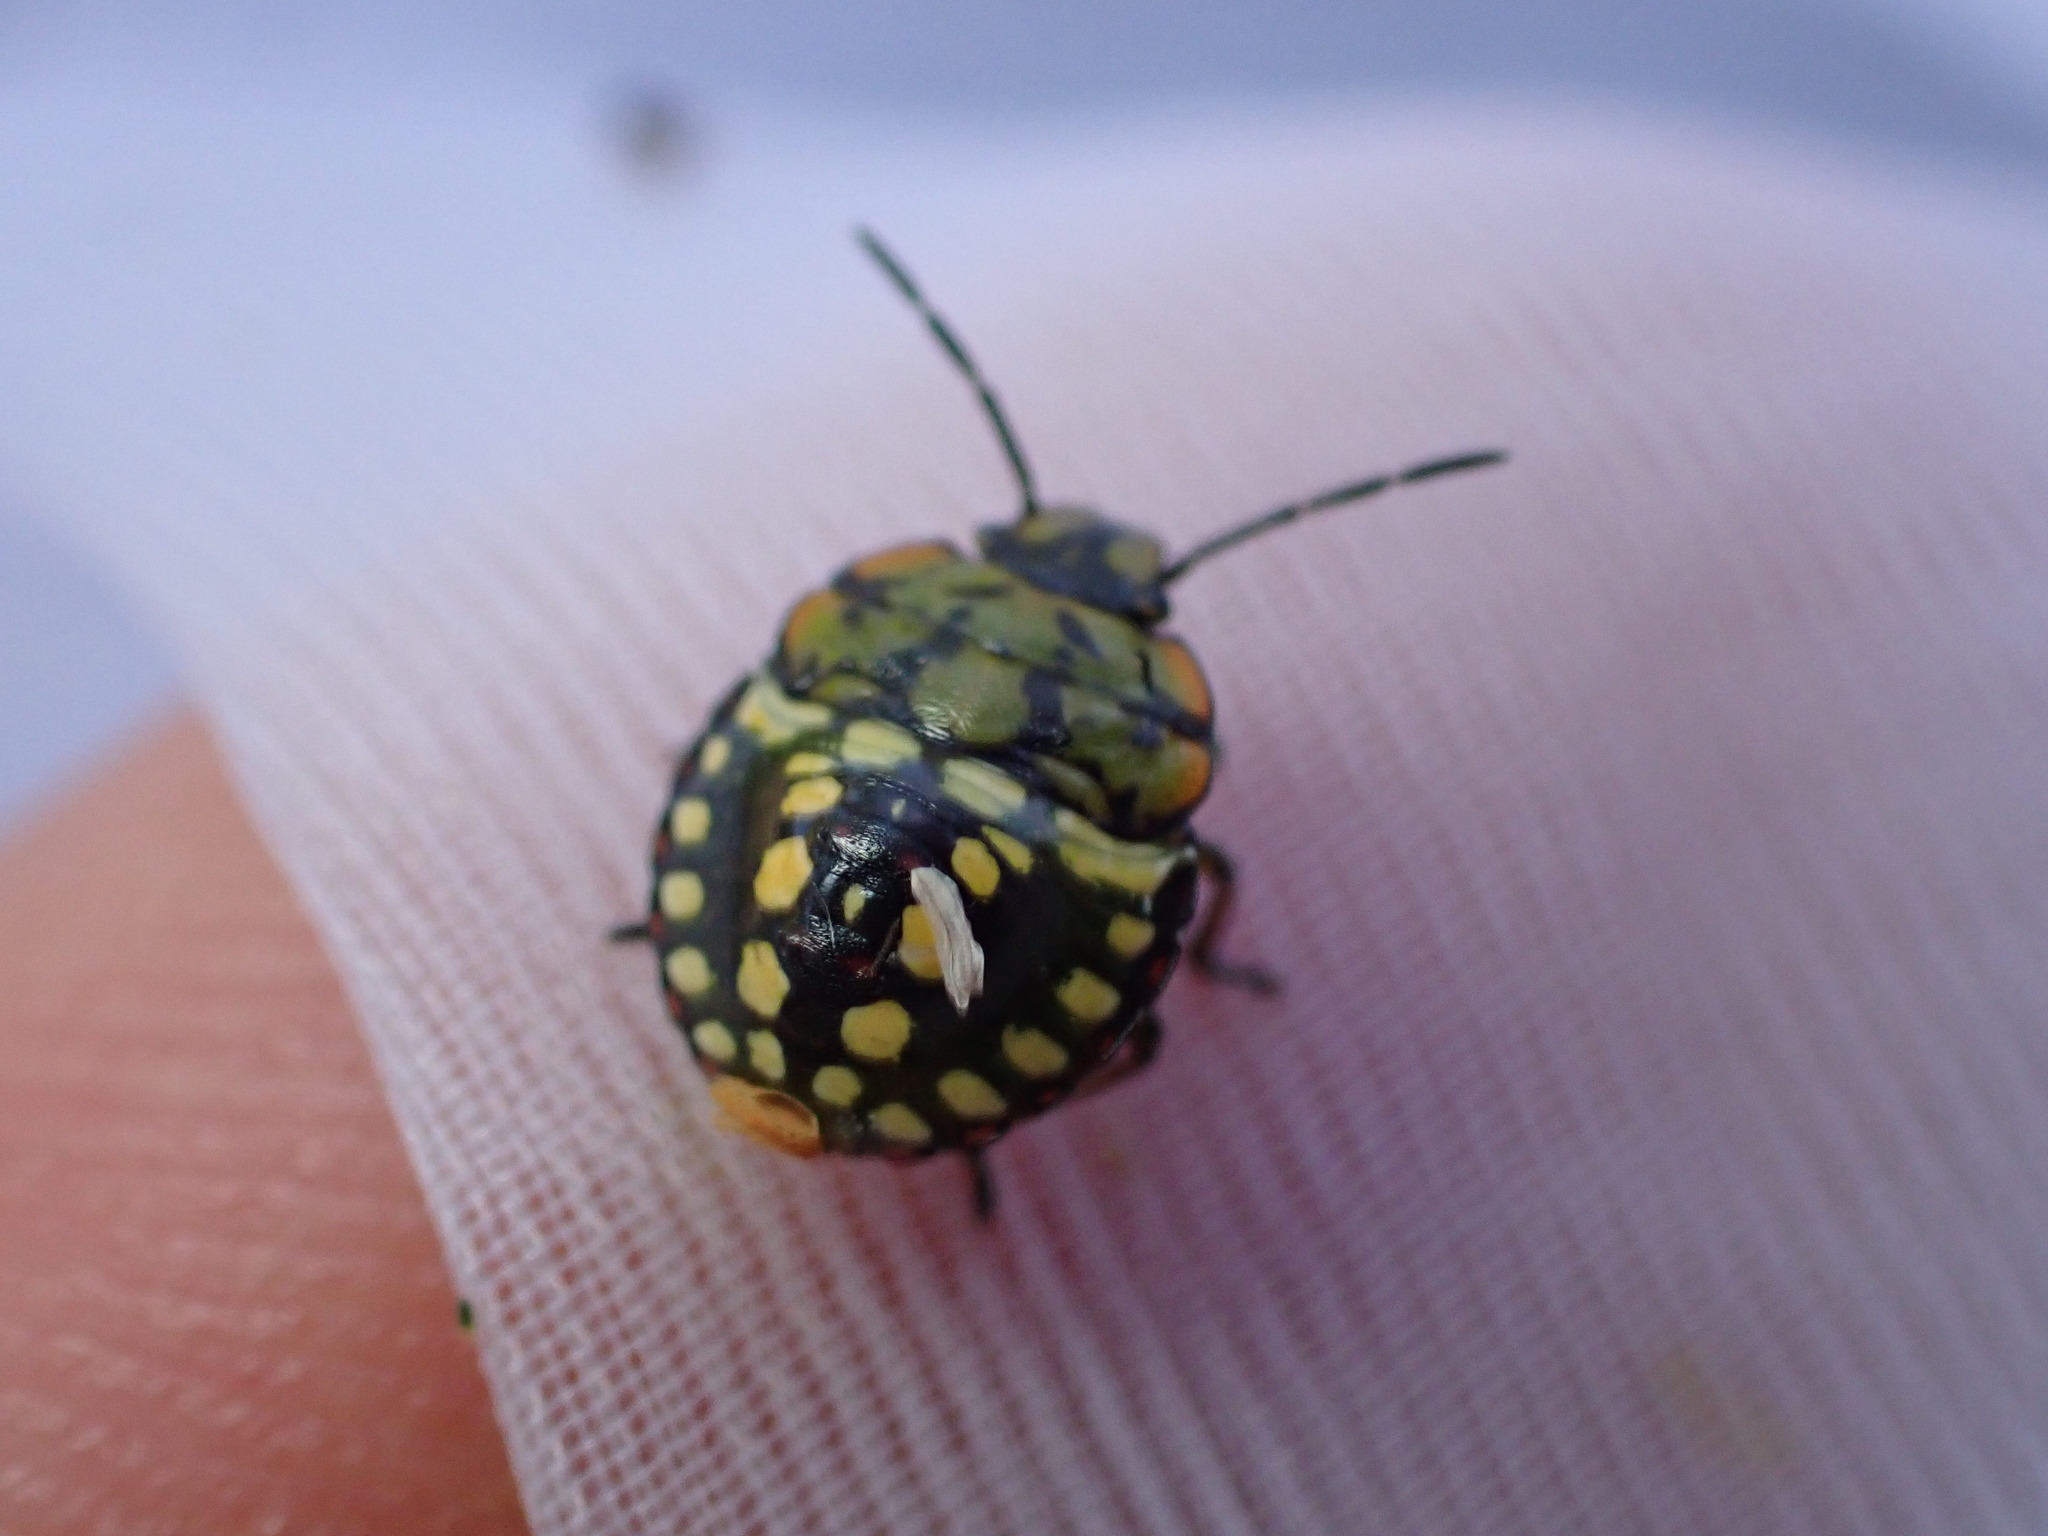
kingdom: Animalia
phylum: Arthropoda
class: Insecta
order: Hemiptera
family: Pentatomidae
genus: Nezara
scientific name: Nezara viridula
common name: Southern green stink bug
